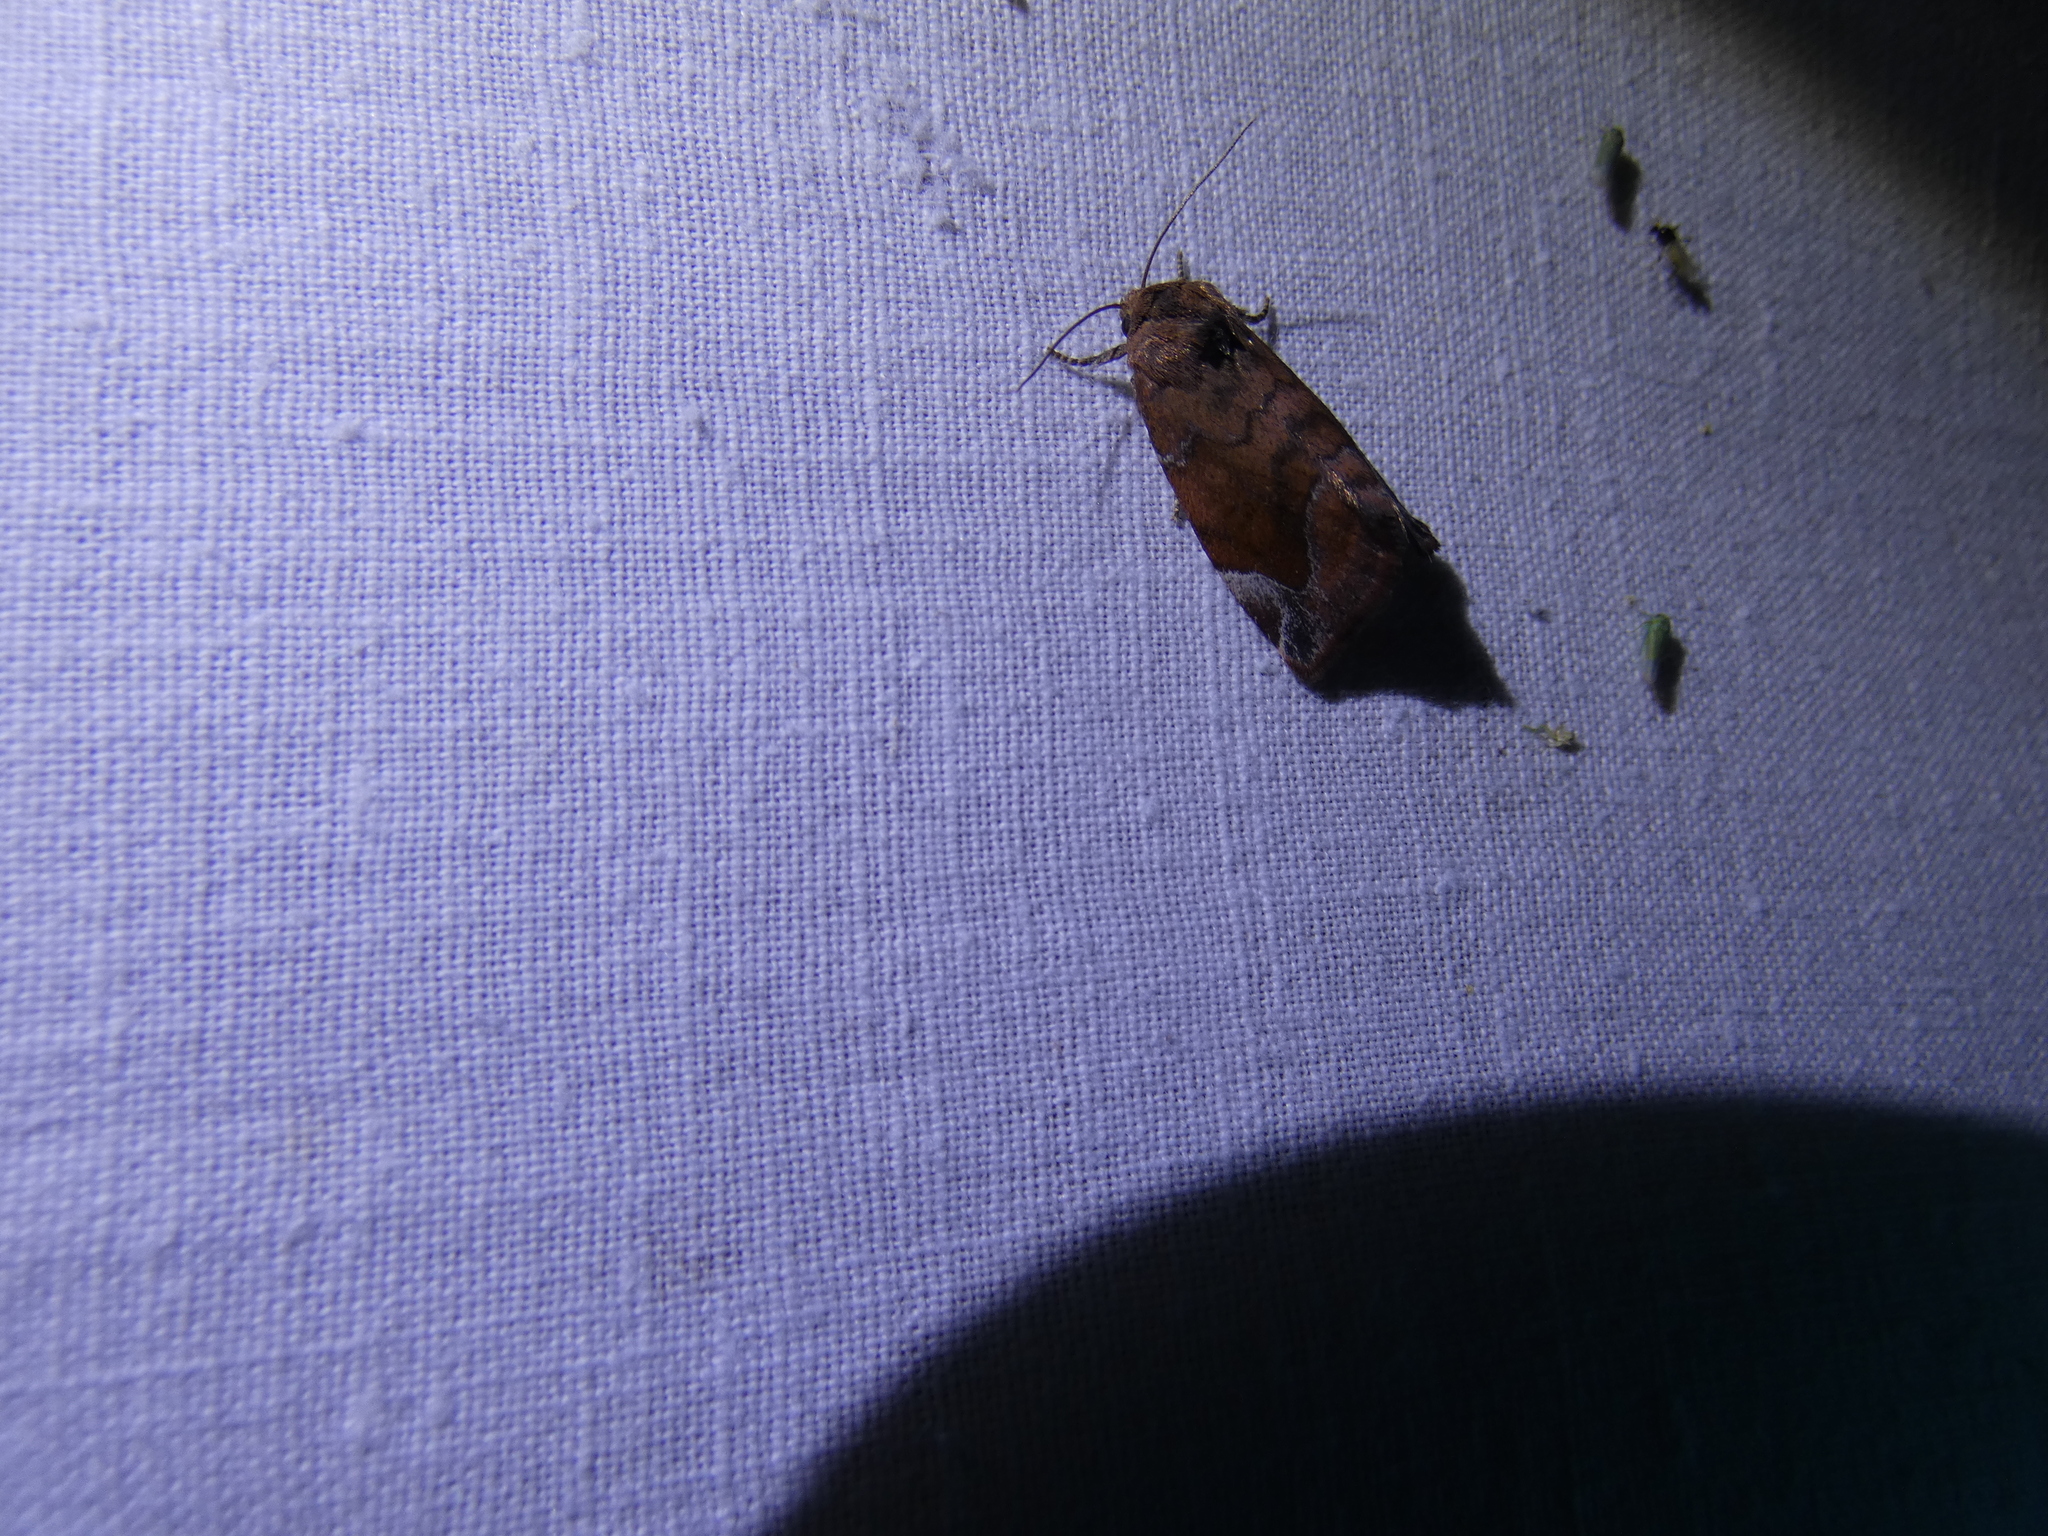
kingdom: Animalia
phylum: Arthropoda
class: Insecta
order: Lepidoptera
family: Noctuidae
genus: Cosmia
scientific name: Cosmia pyralina
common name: Lunar-spotted pinion
